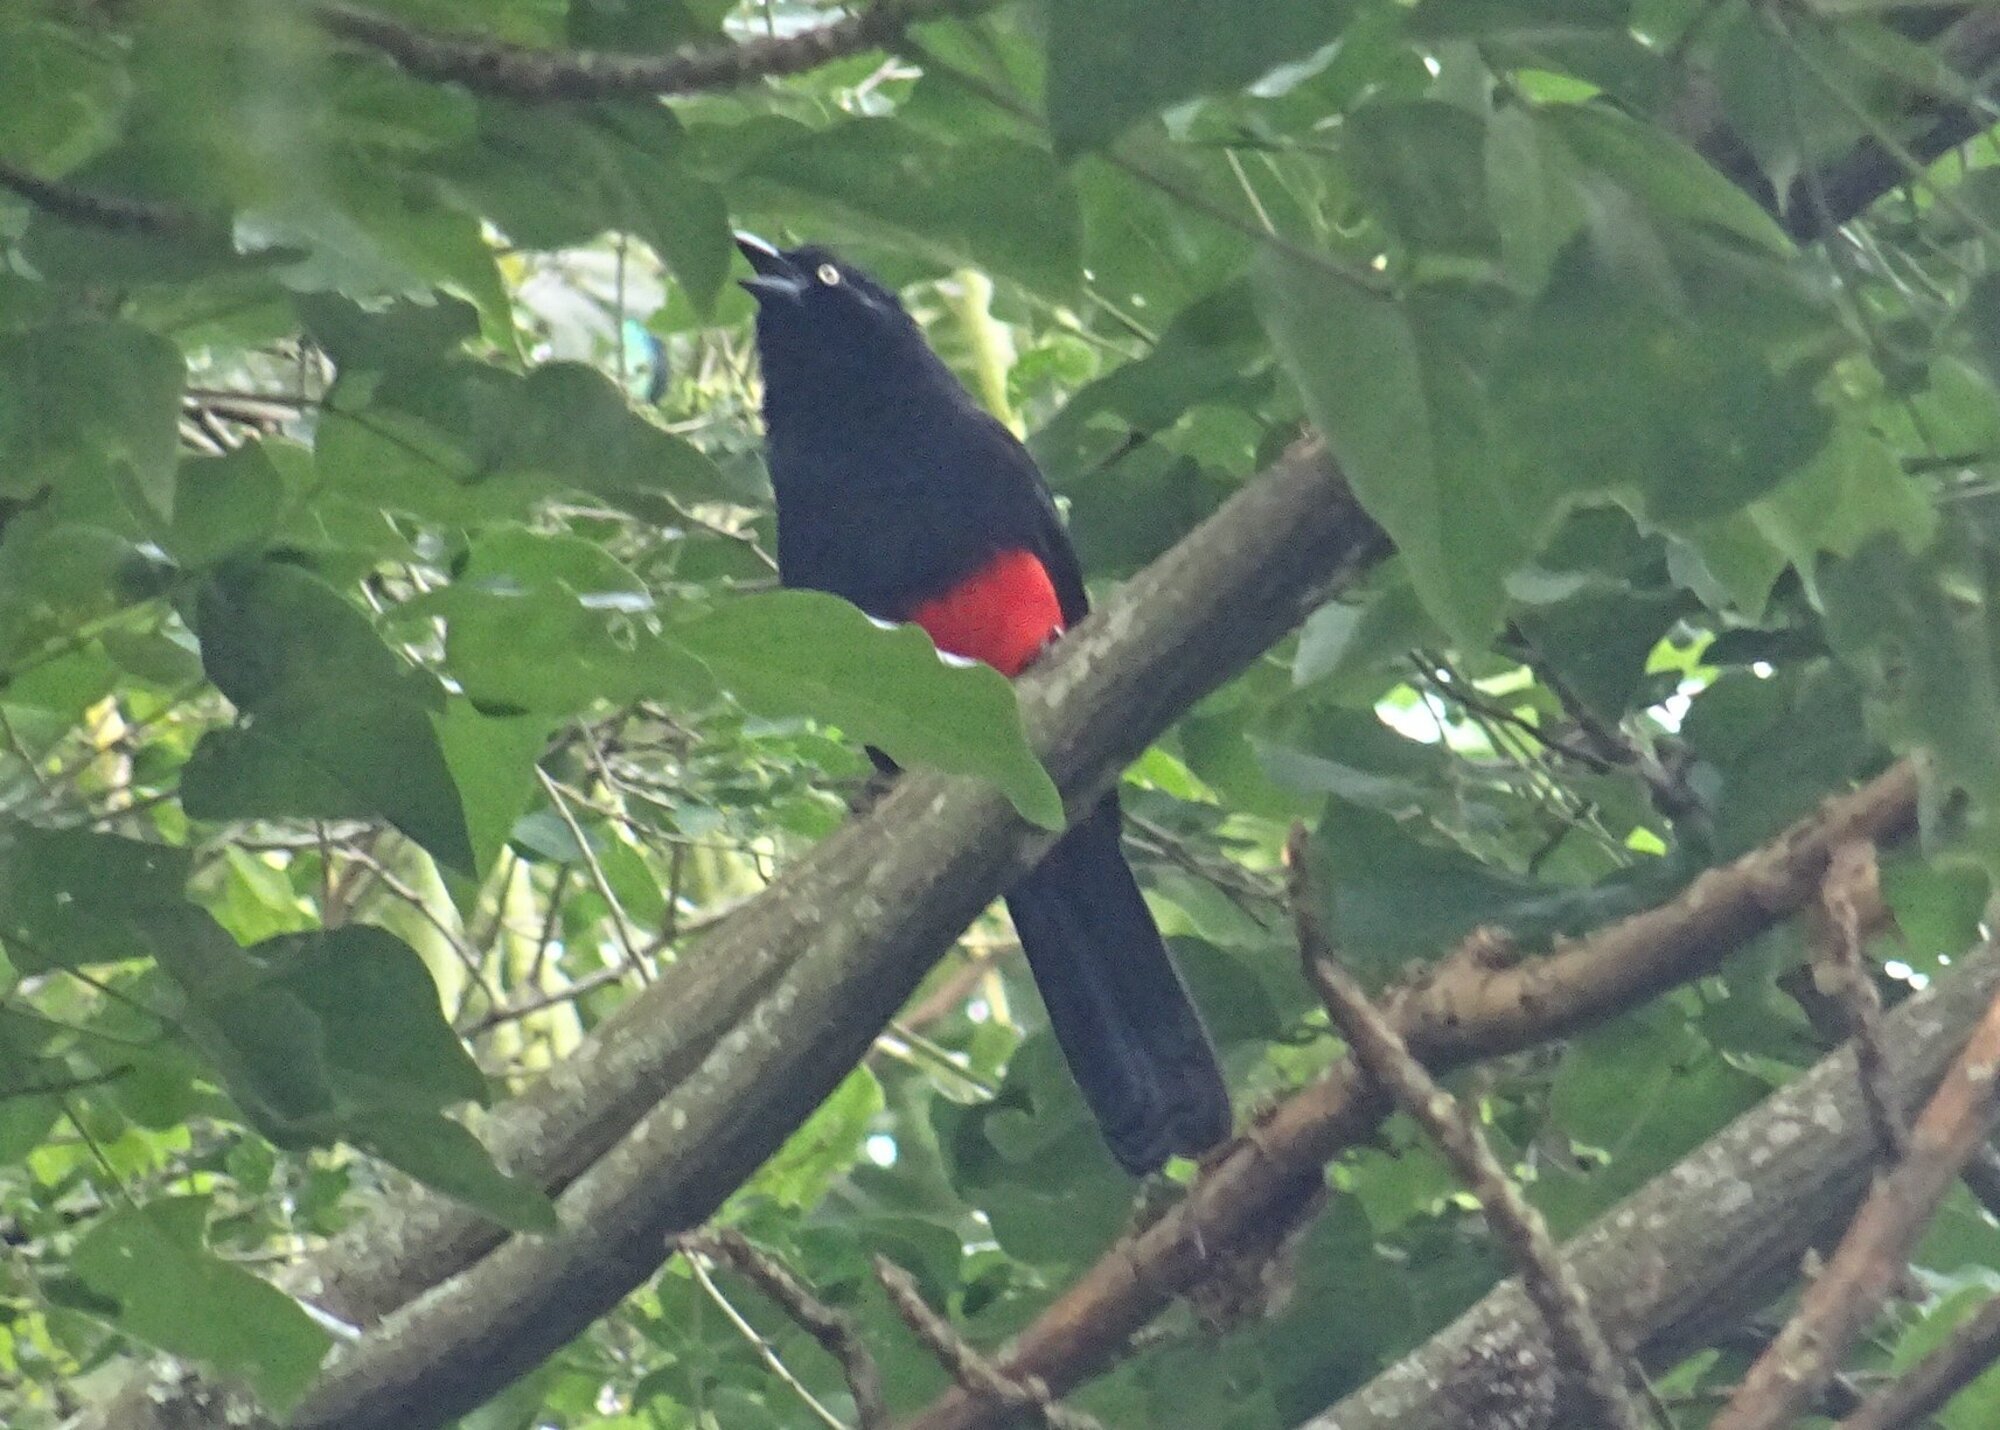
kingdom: Animalia
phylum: Chordata
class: Aves
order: Passeriformes
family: Icteridae
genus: Hypopyrrhus
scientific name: Hypopyrrhus pyrohypogaster
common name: Red-bellied grackle
